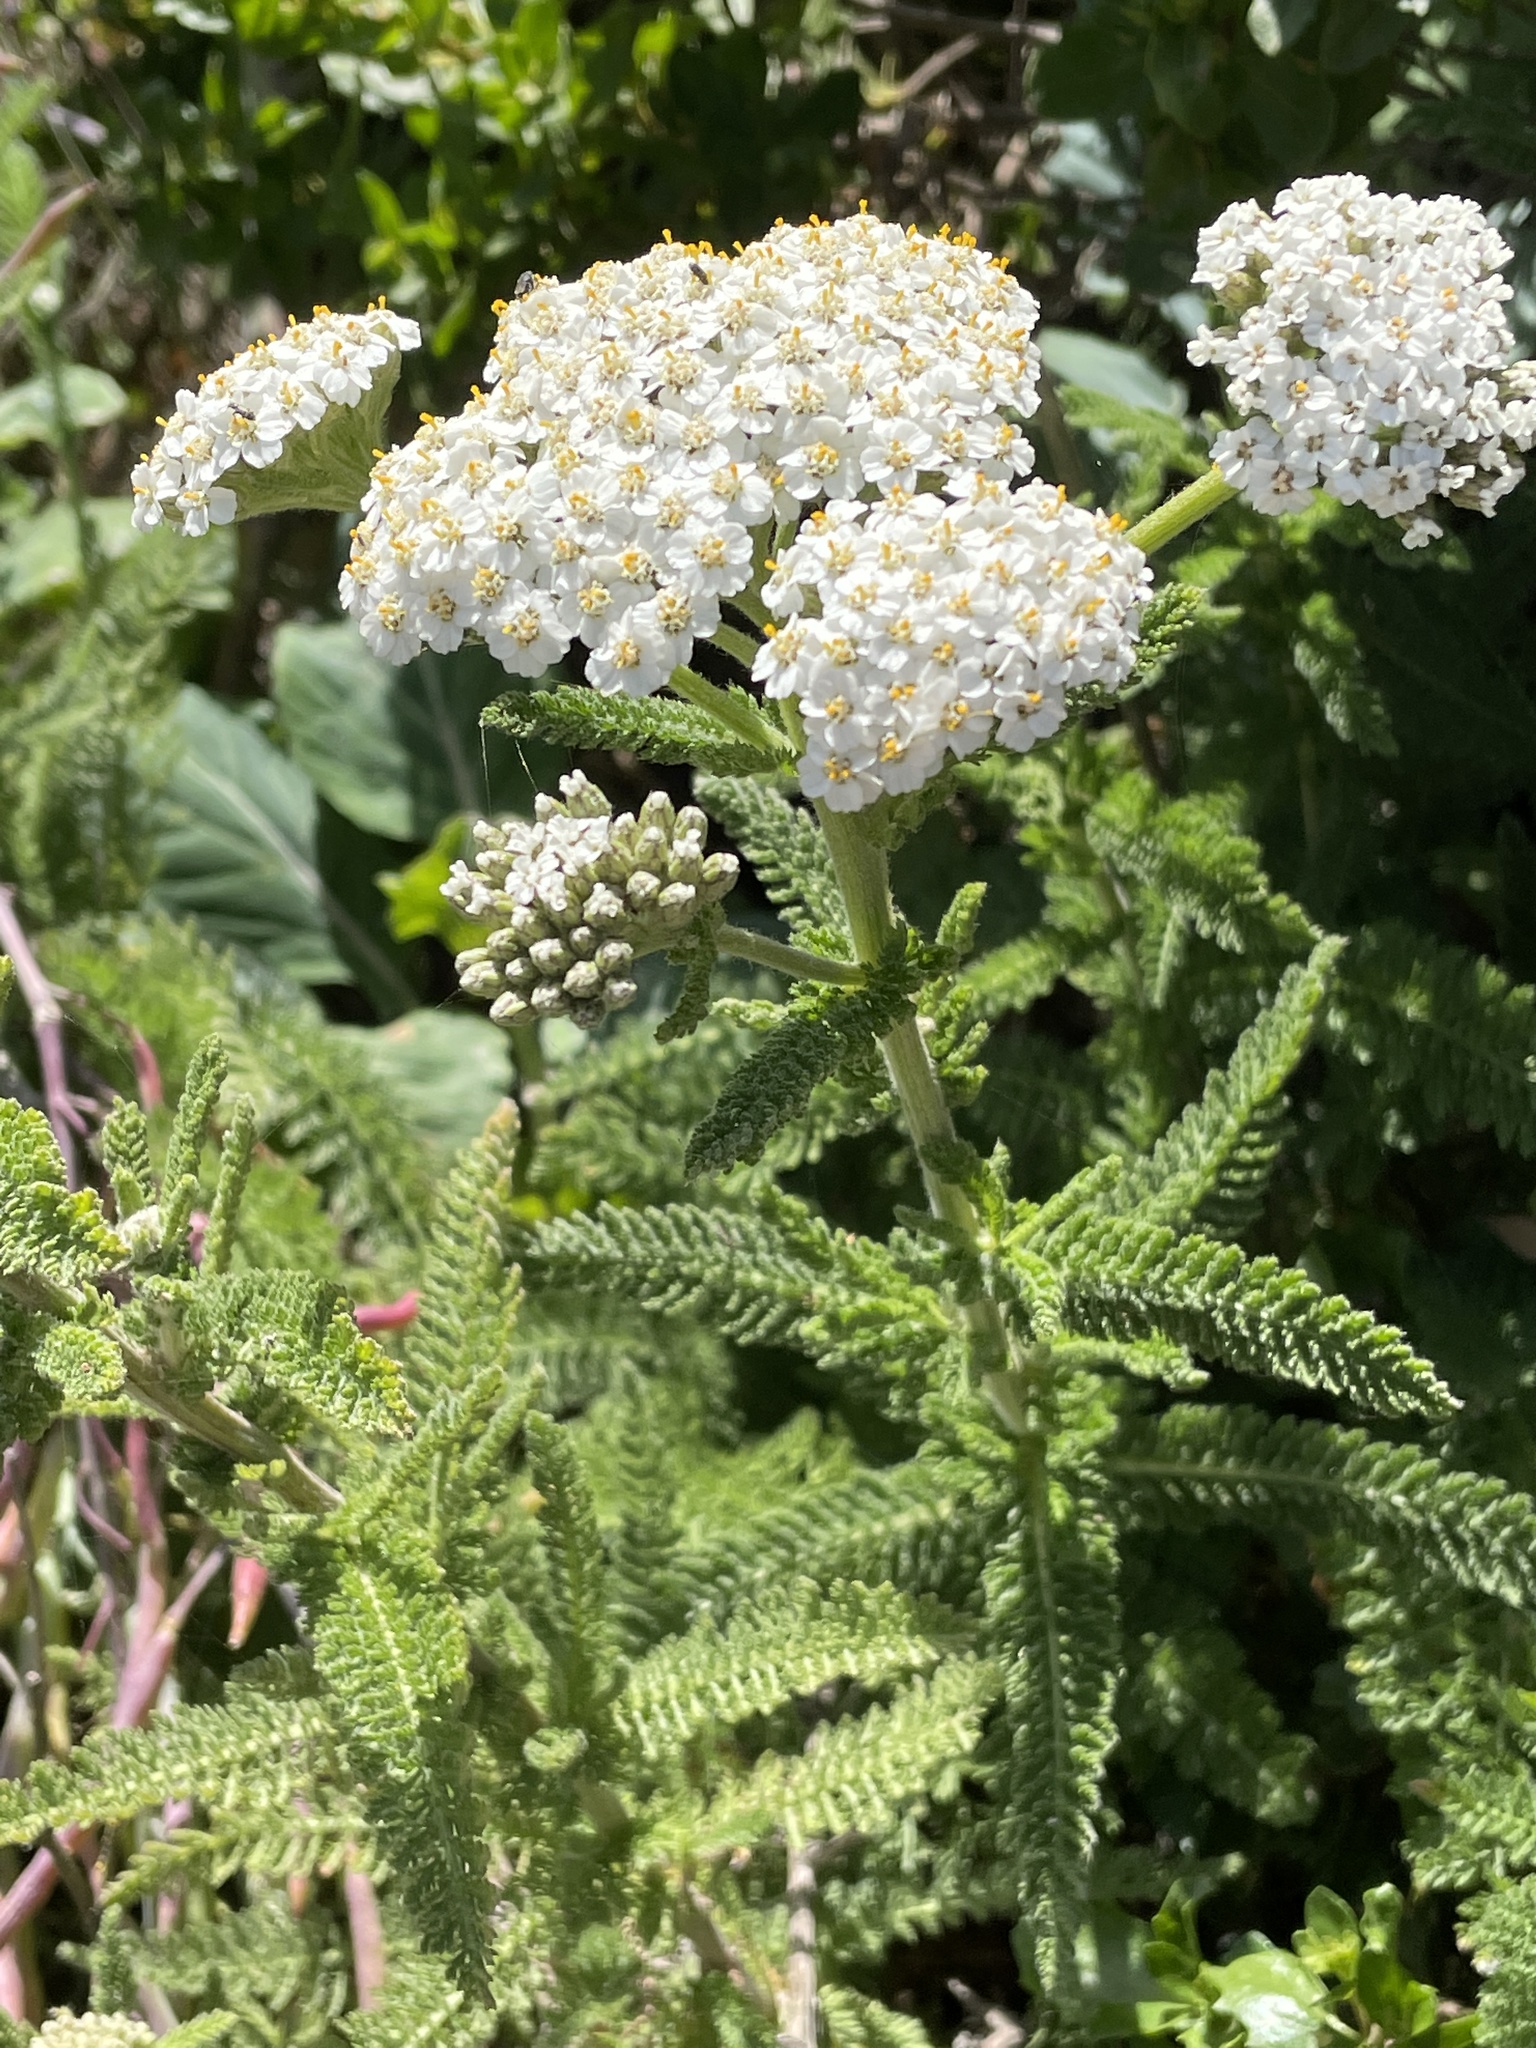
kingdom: Plantae
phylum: Tracheophyta
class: Magnoliopsida
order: Asterales
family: Asteraceae
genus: Achillea
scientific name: Achillea millefolium
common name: Yarrow
